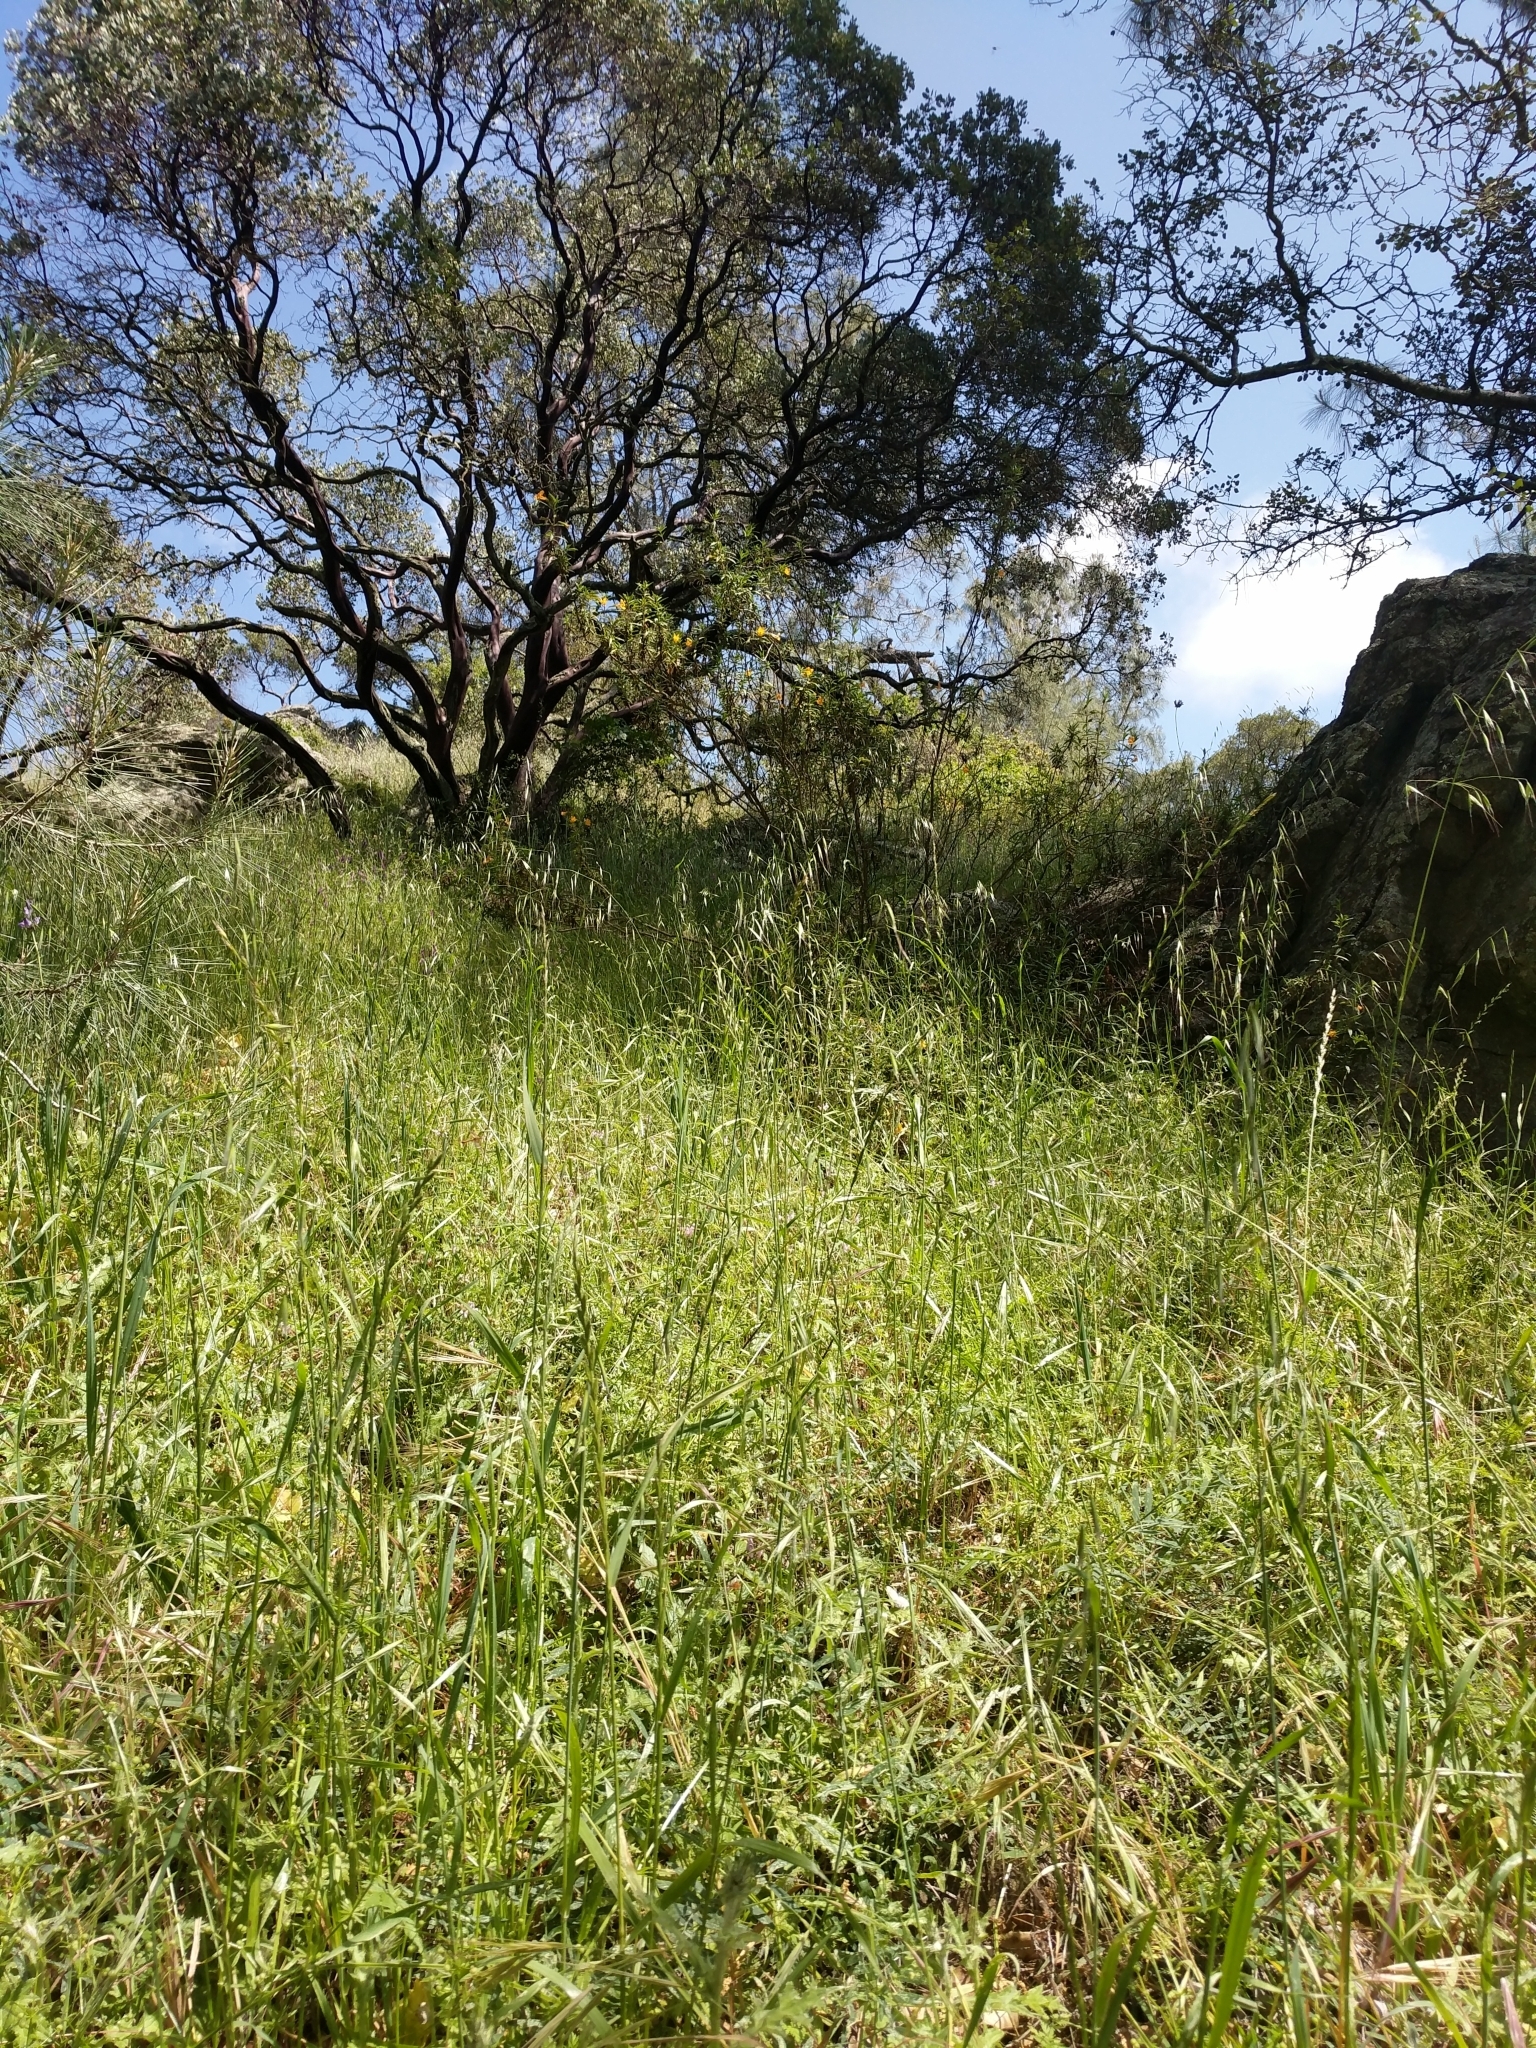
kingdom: Plantae
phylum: Tracheophyta
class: Magnoliopsida
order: Lamiales
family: Phrymaceae
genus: Diplacus
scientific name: Diplacus aurantiacus
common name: Bush monkey-flower
